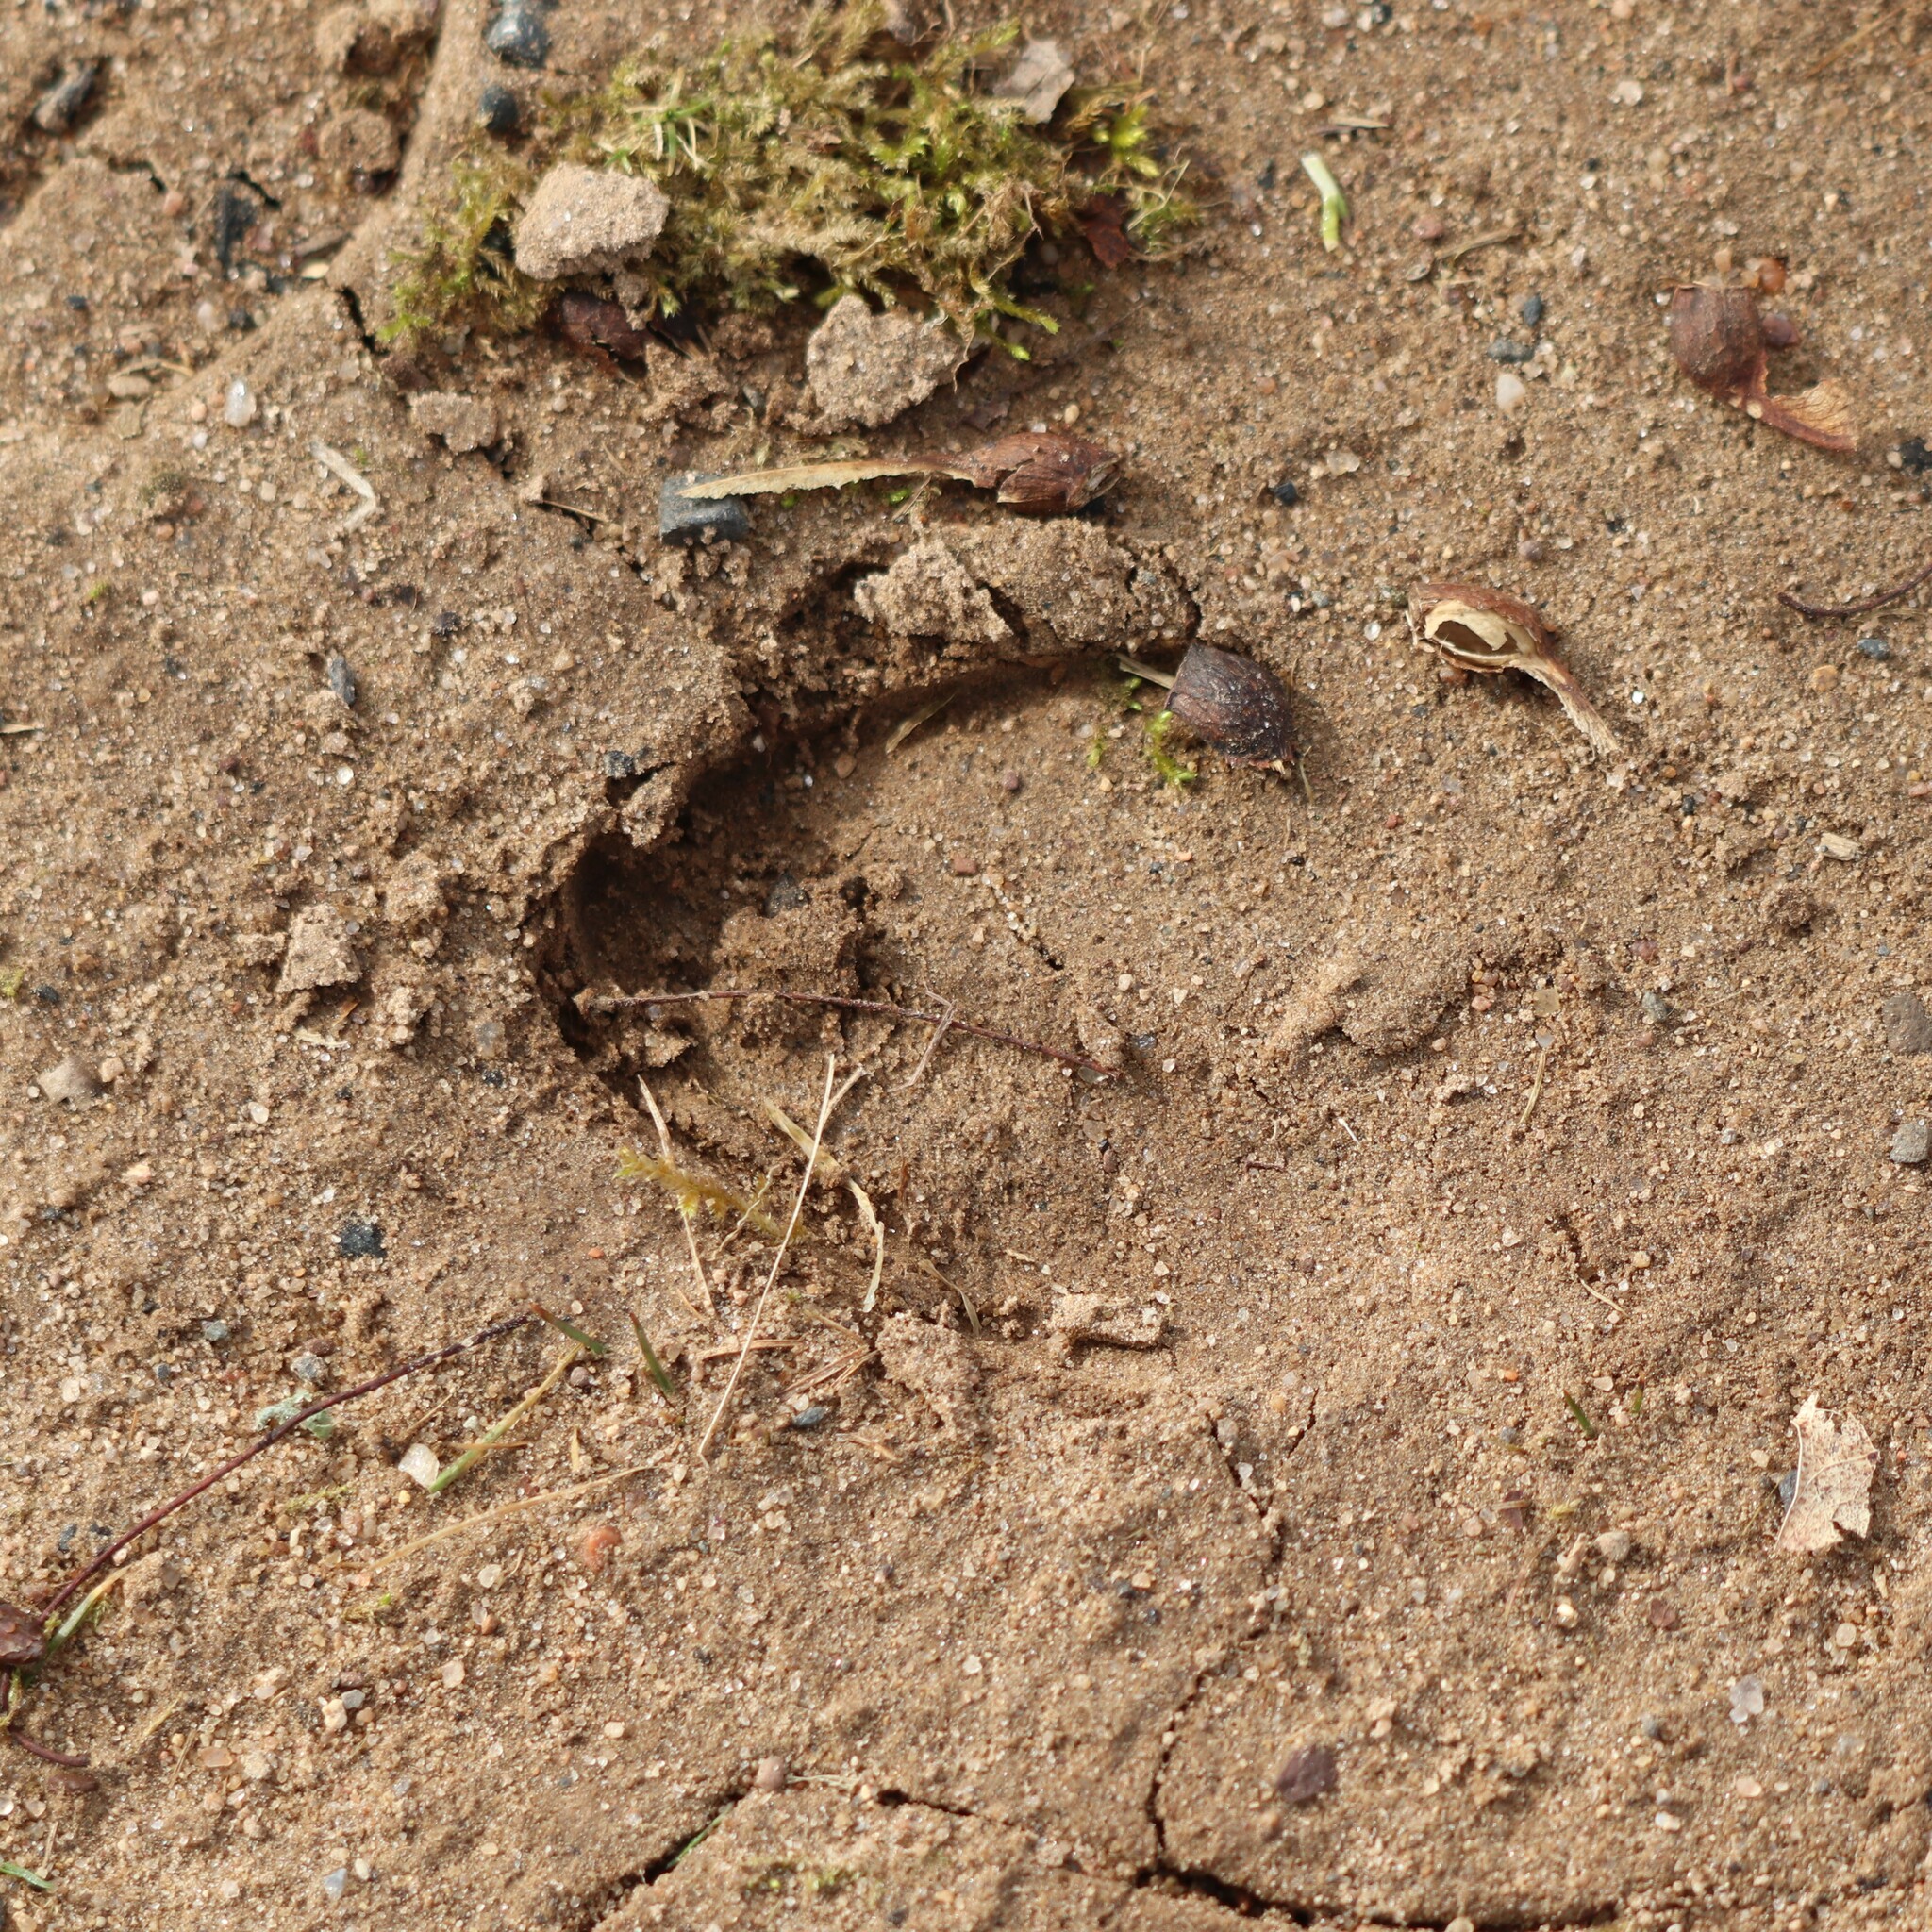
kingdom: Animalia
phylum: Chordata
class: Mammalia
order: Artiodactyla
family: Cervidae
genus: Odocoileus
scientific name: Odocoileus virginianus
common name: White-tailed deer
